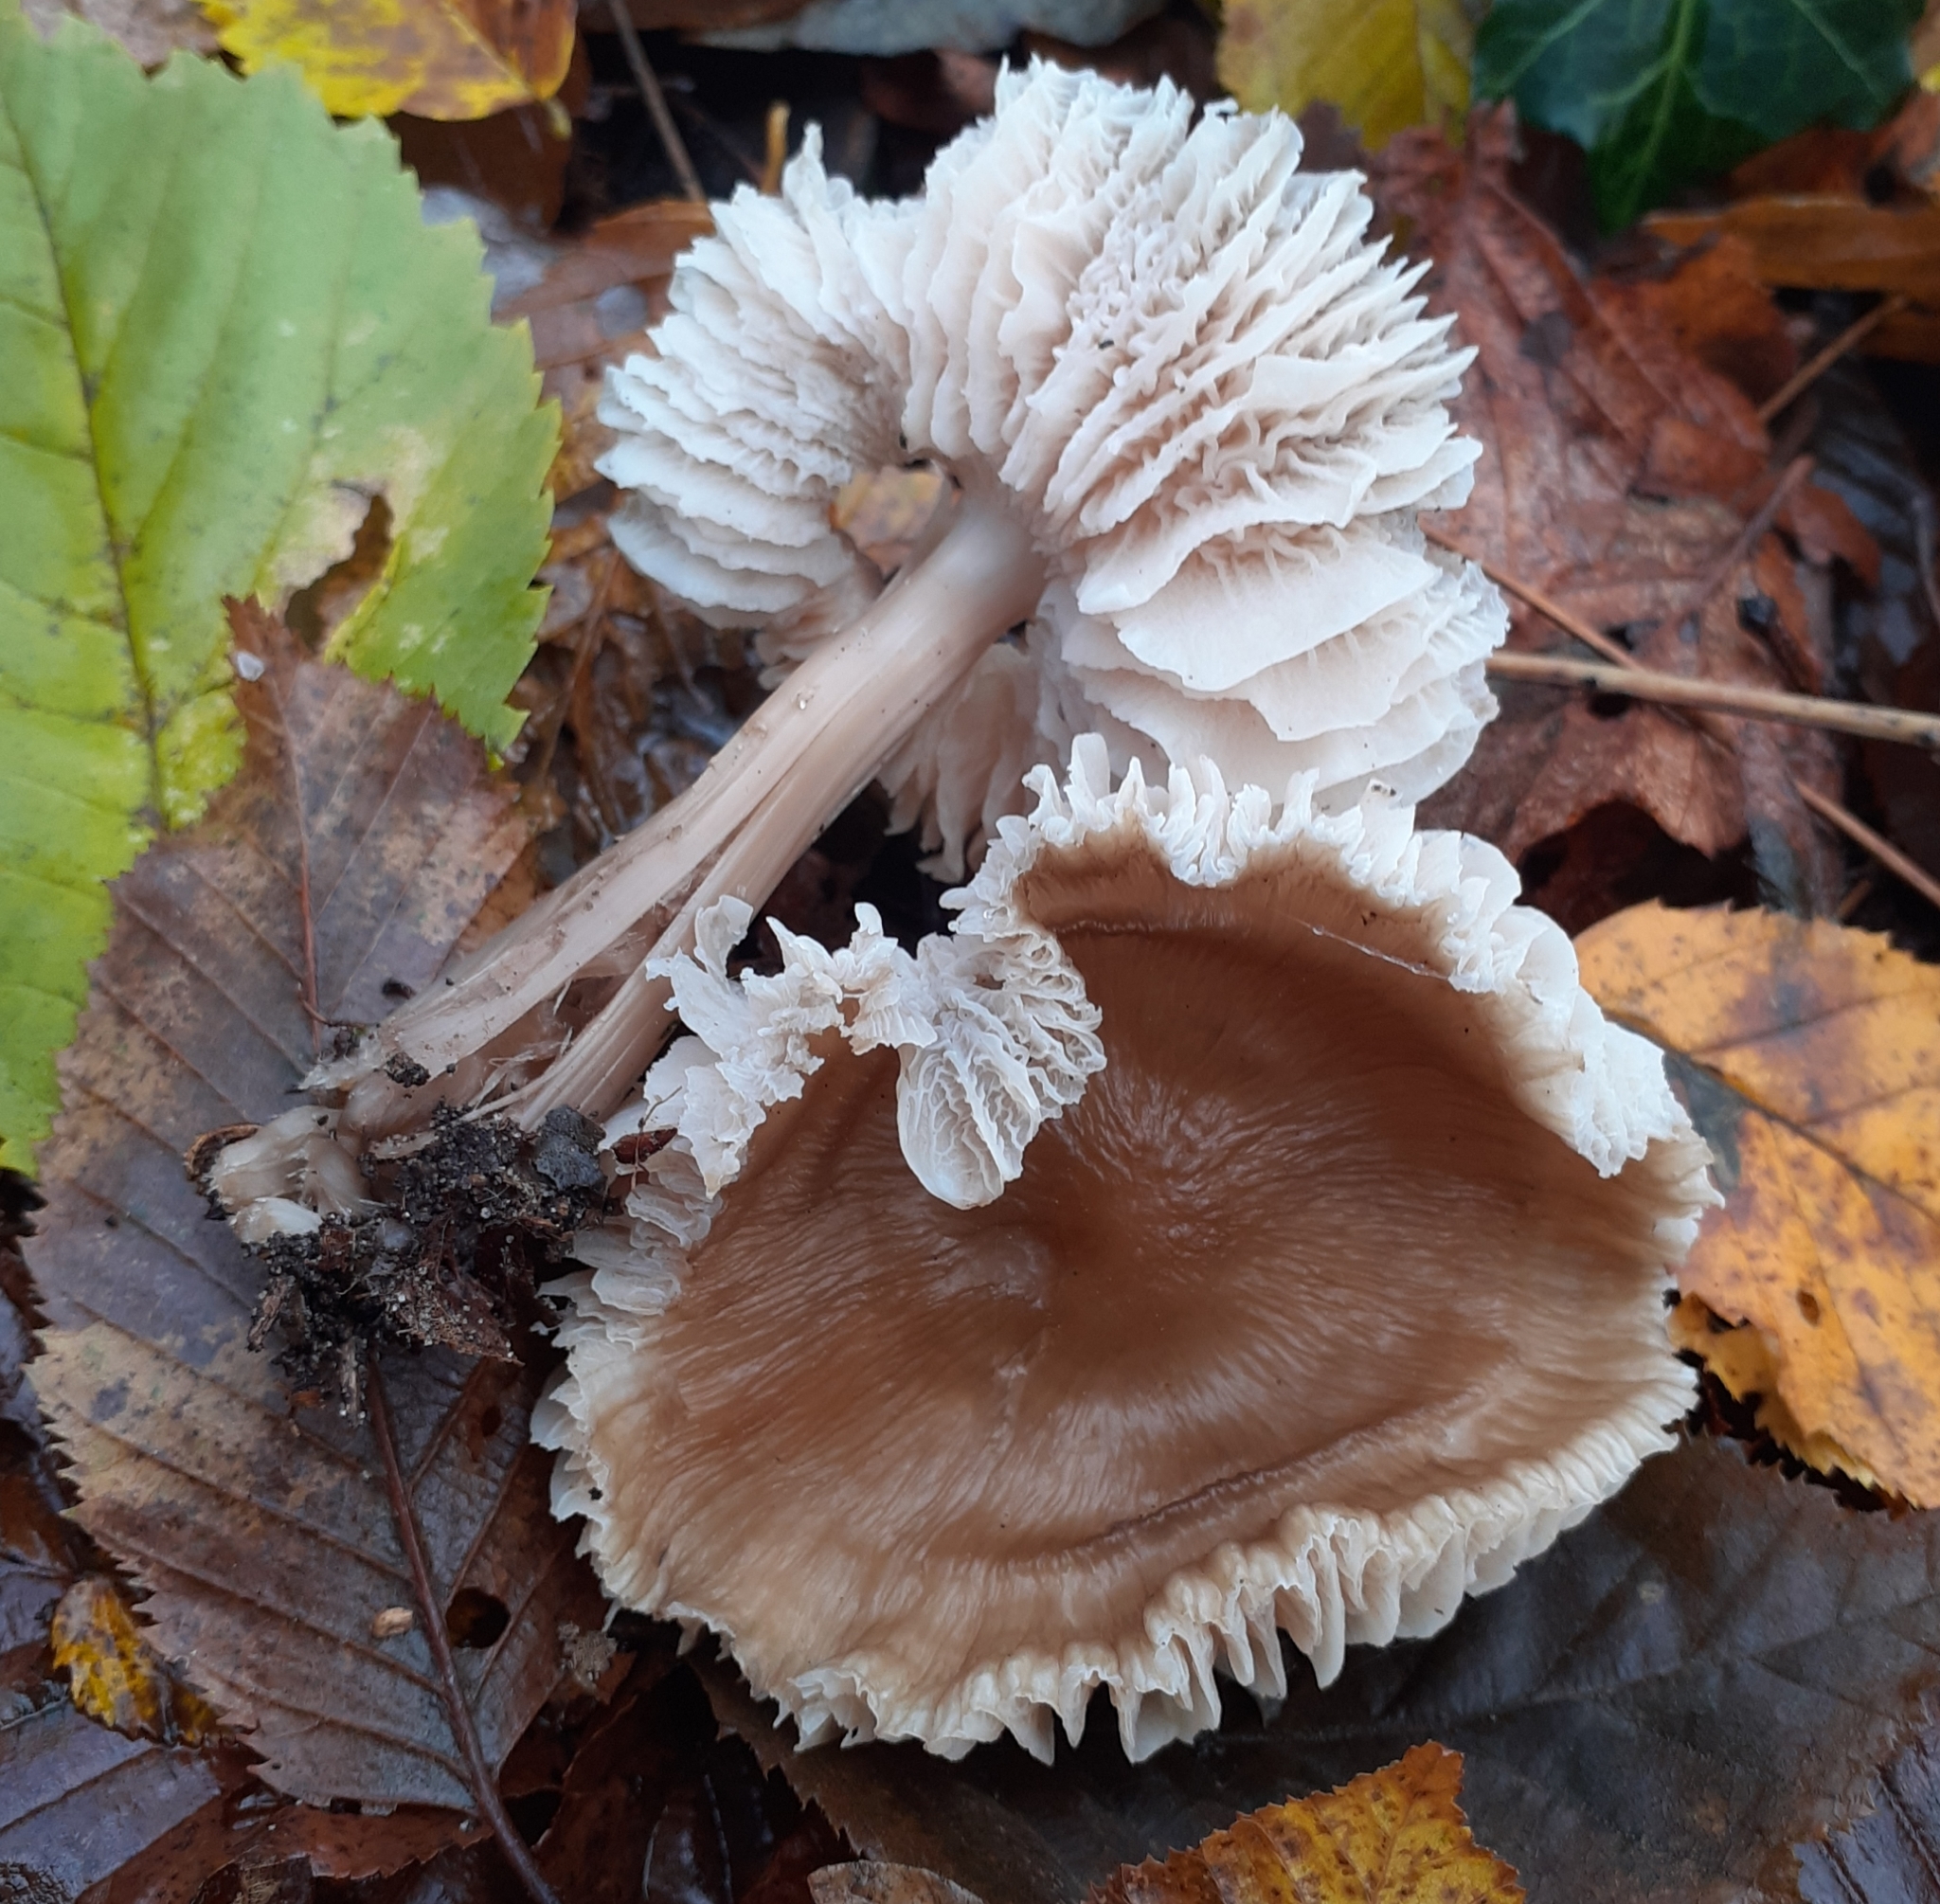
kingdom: Fungi
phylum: Basidiomycota
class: Agaricomycetes
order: Agaricales
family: Omphalotaceae
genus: Rhodocollybia
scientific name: Rhodocollybia butyracea
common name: Butter cap
